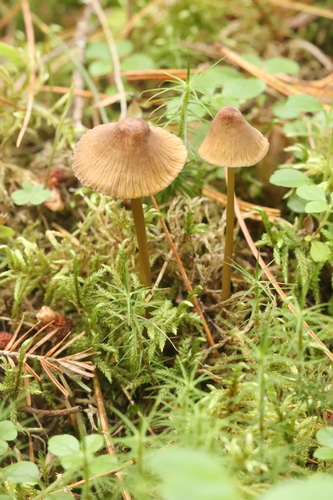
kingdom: Fungi
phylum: Basidiomycota
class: Agaricomycetes
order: Agaricales
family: Mycenaceae
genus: Mycena
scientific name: Mycena viridimarginata
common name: Olive edge bonnet
